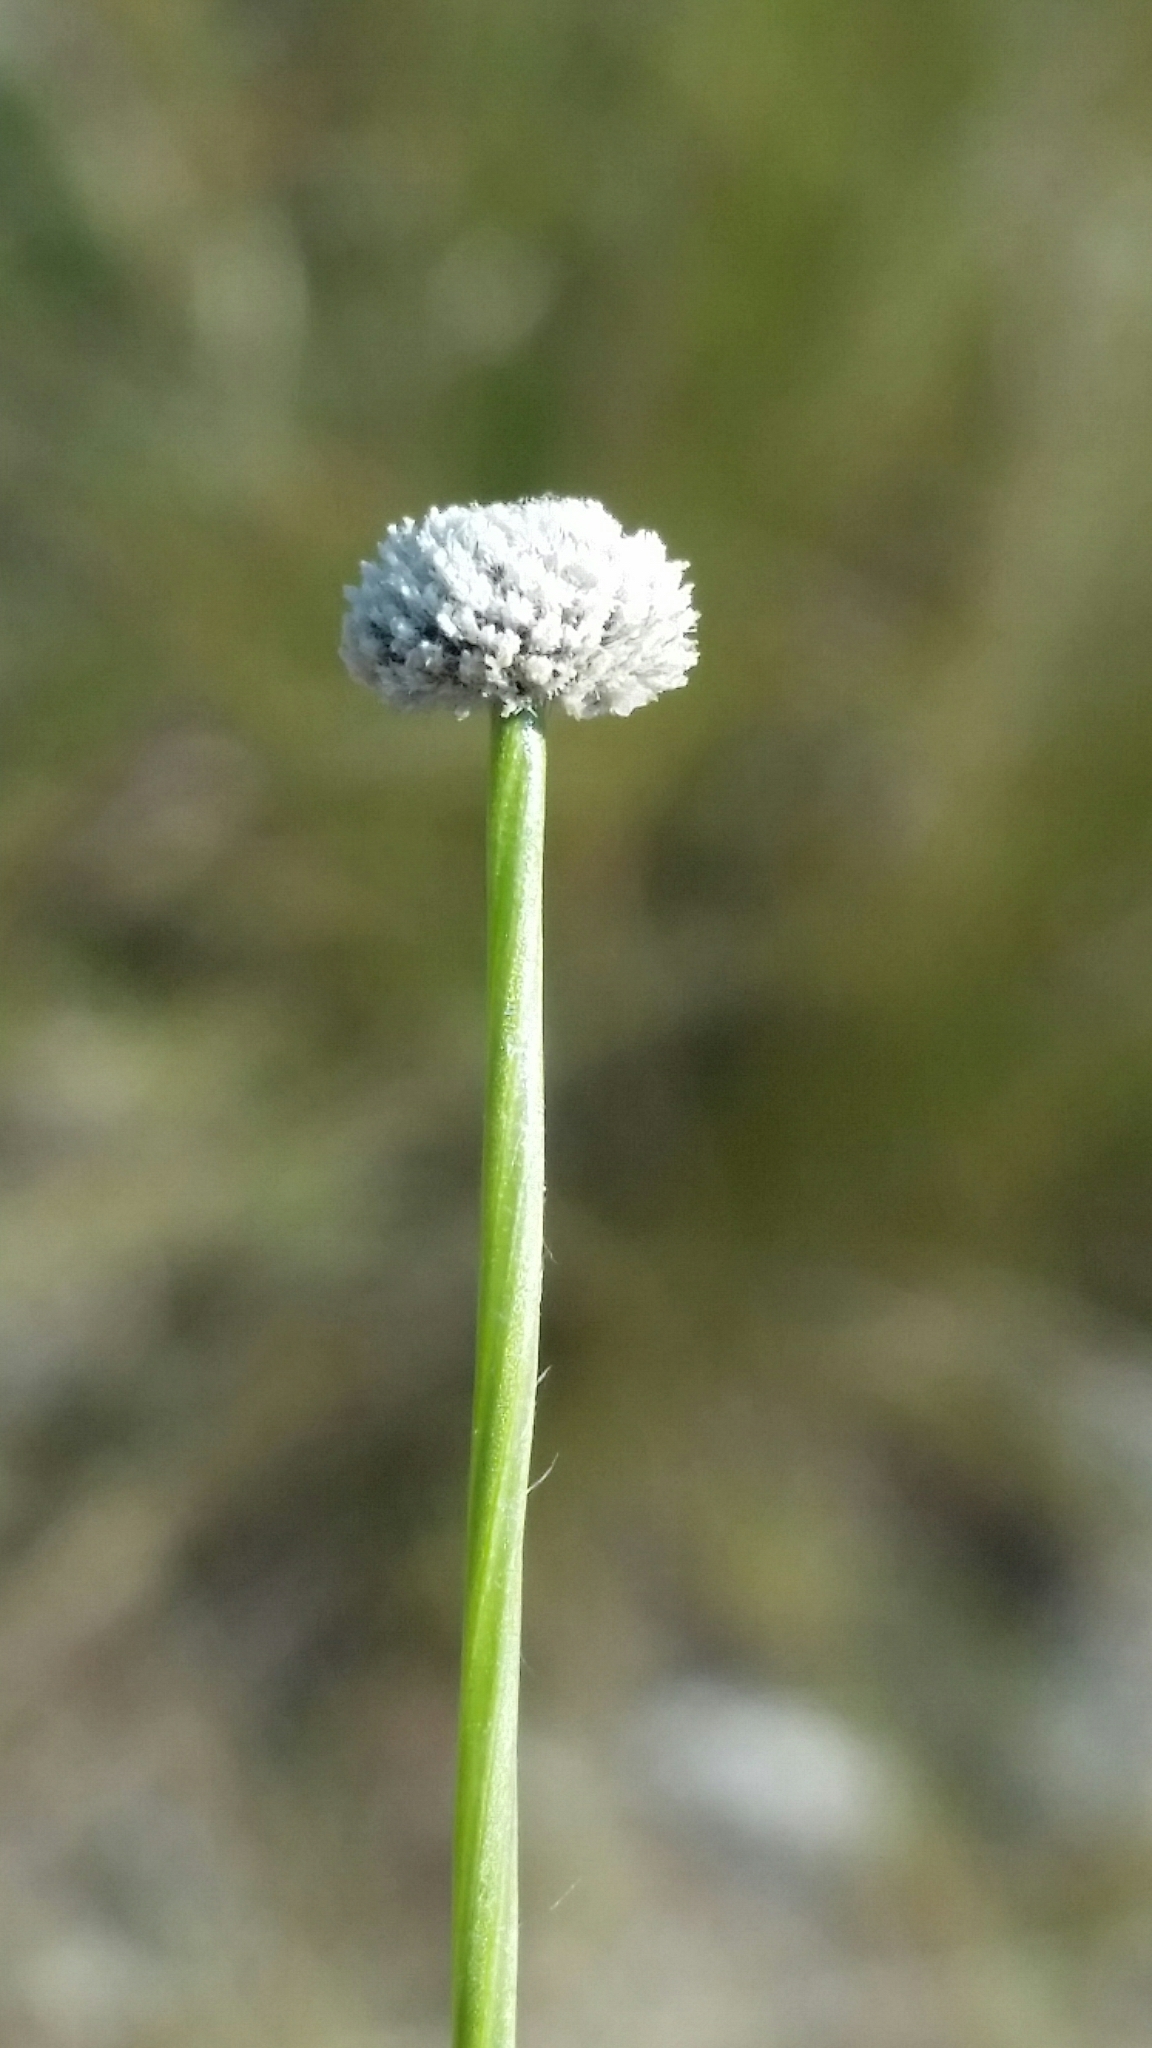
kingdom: Plantae
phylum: Tracheophyta
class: Liliopsida
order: Poales
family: Eriocaulaceae
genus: Paepalanthus
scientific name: Paepalanthus anceps
